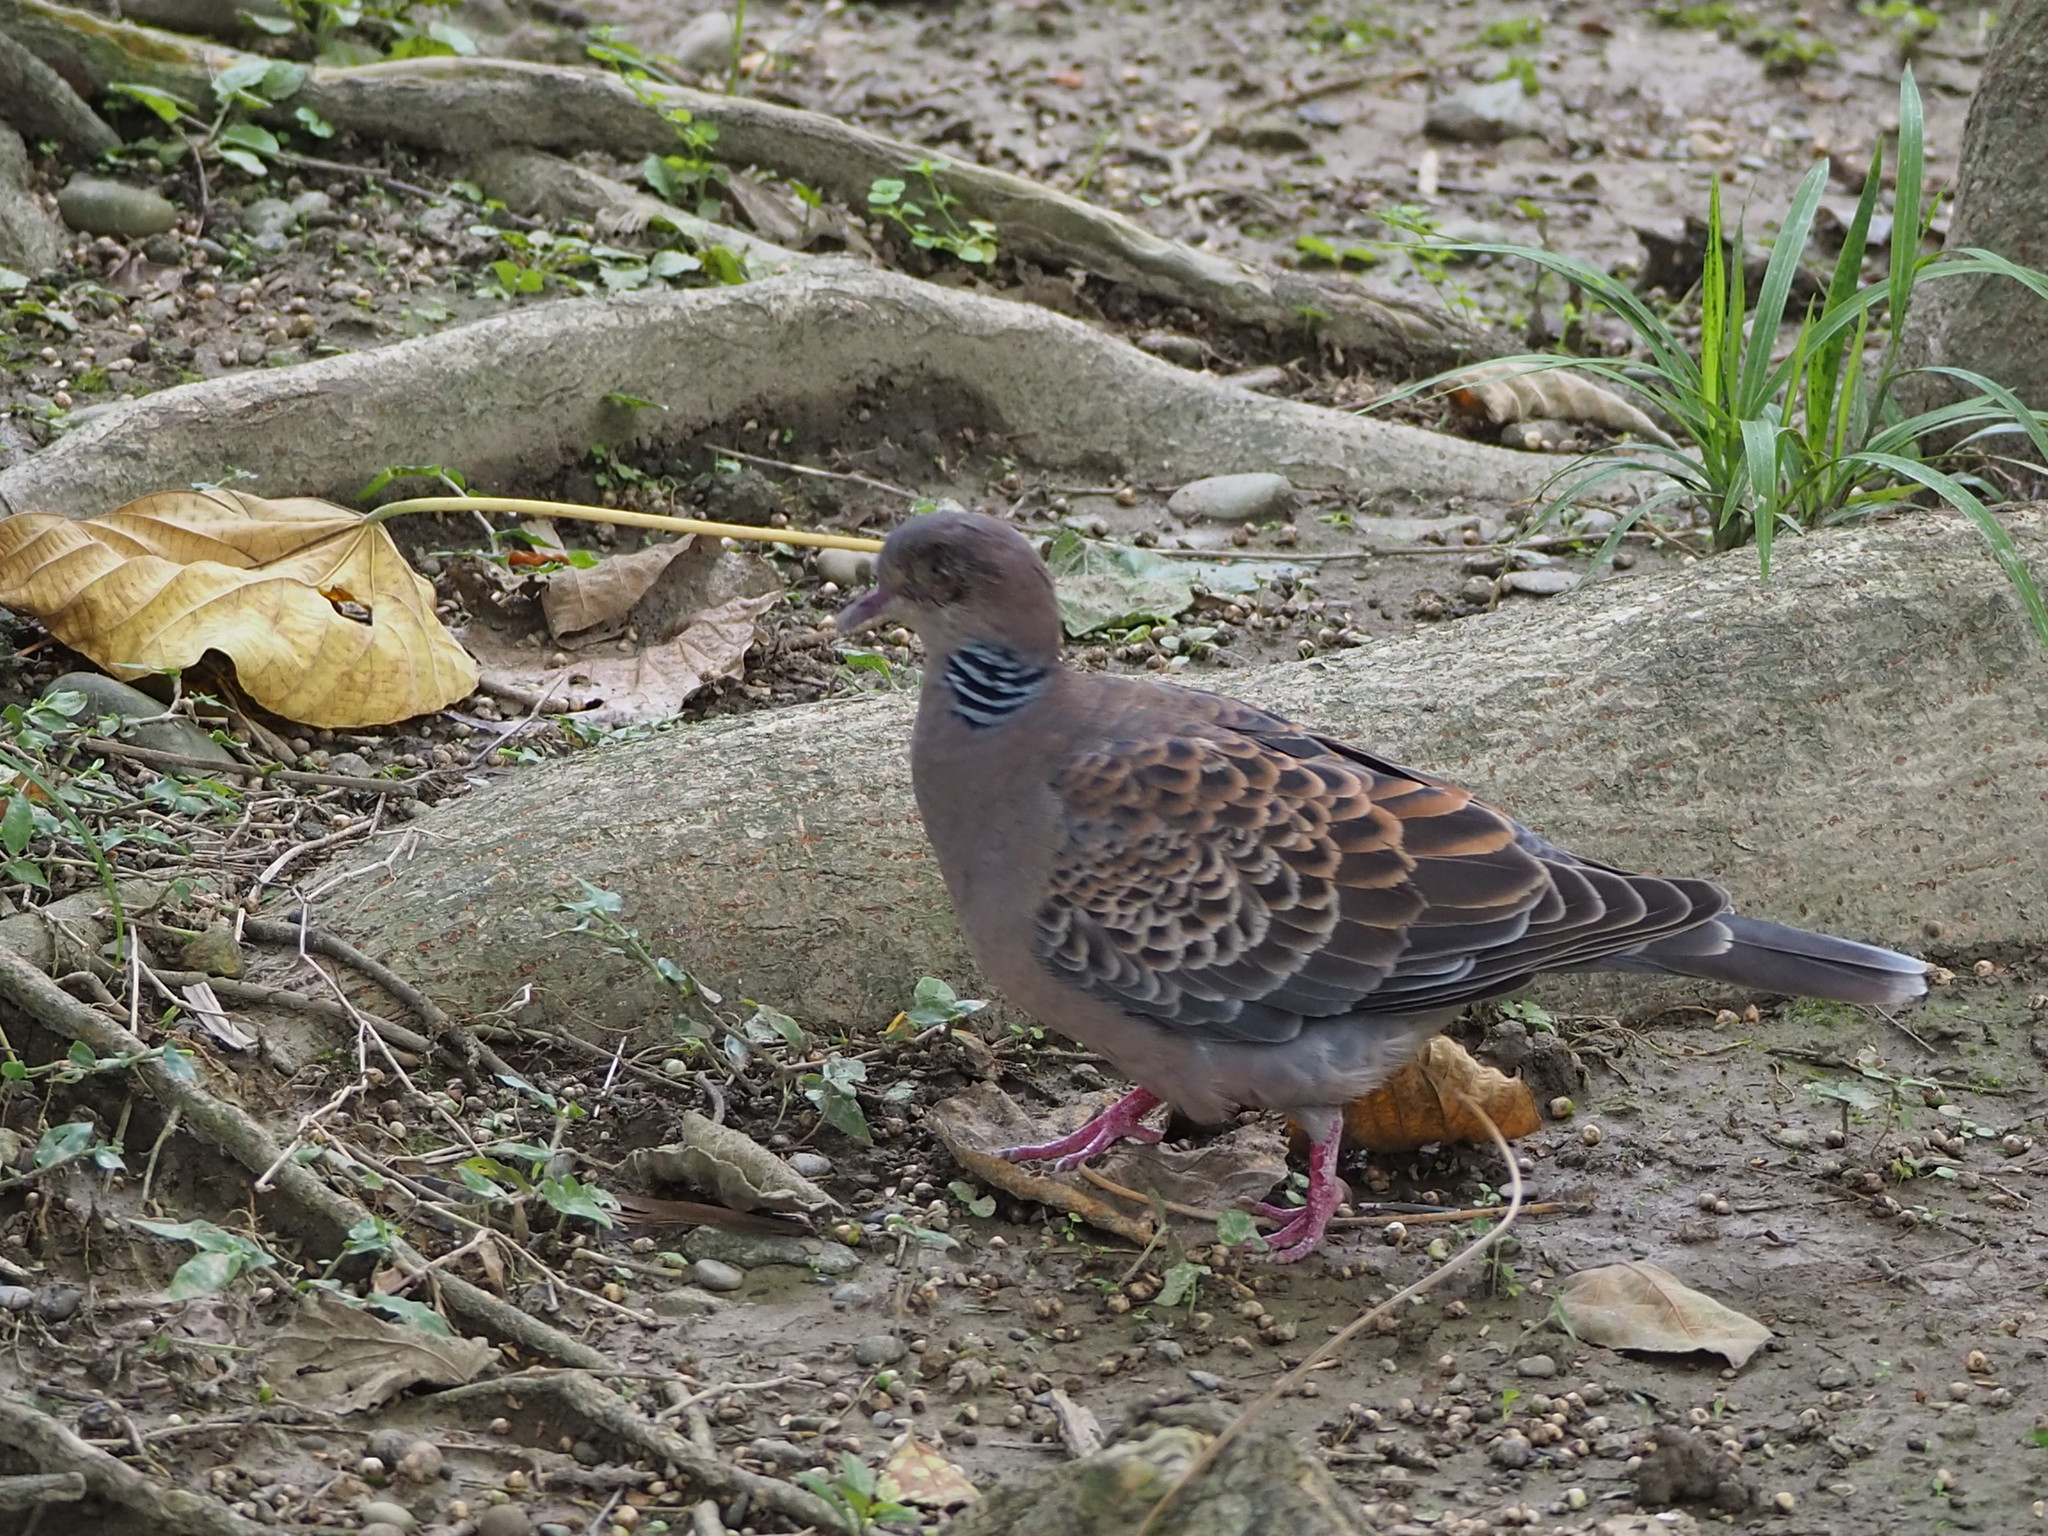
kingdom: Animalia
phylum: Chordata
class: Aves
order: Columbiformes
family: Columbidae
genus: Streptopelia
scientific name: Streptopelia orientalis
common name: Oriental turtle dove
